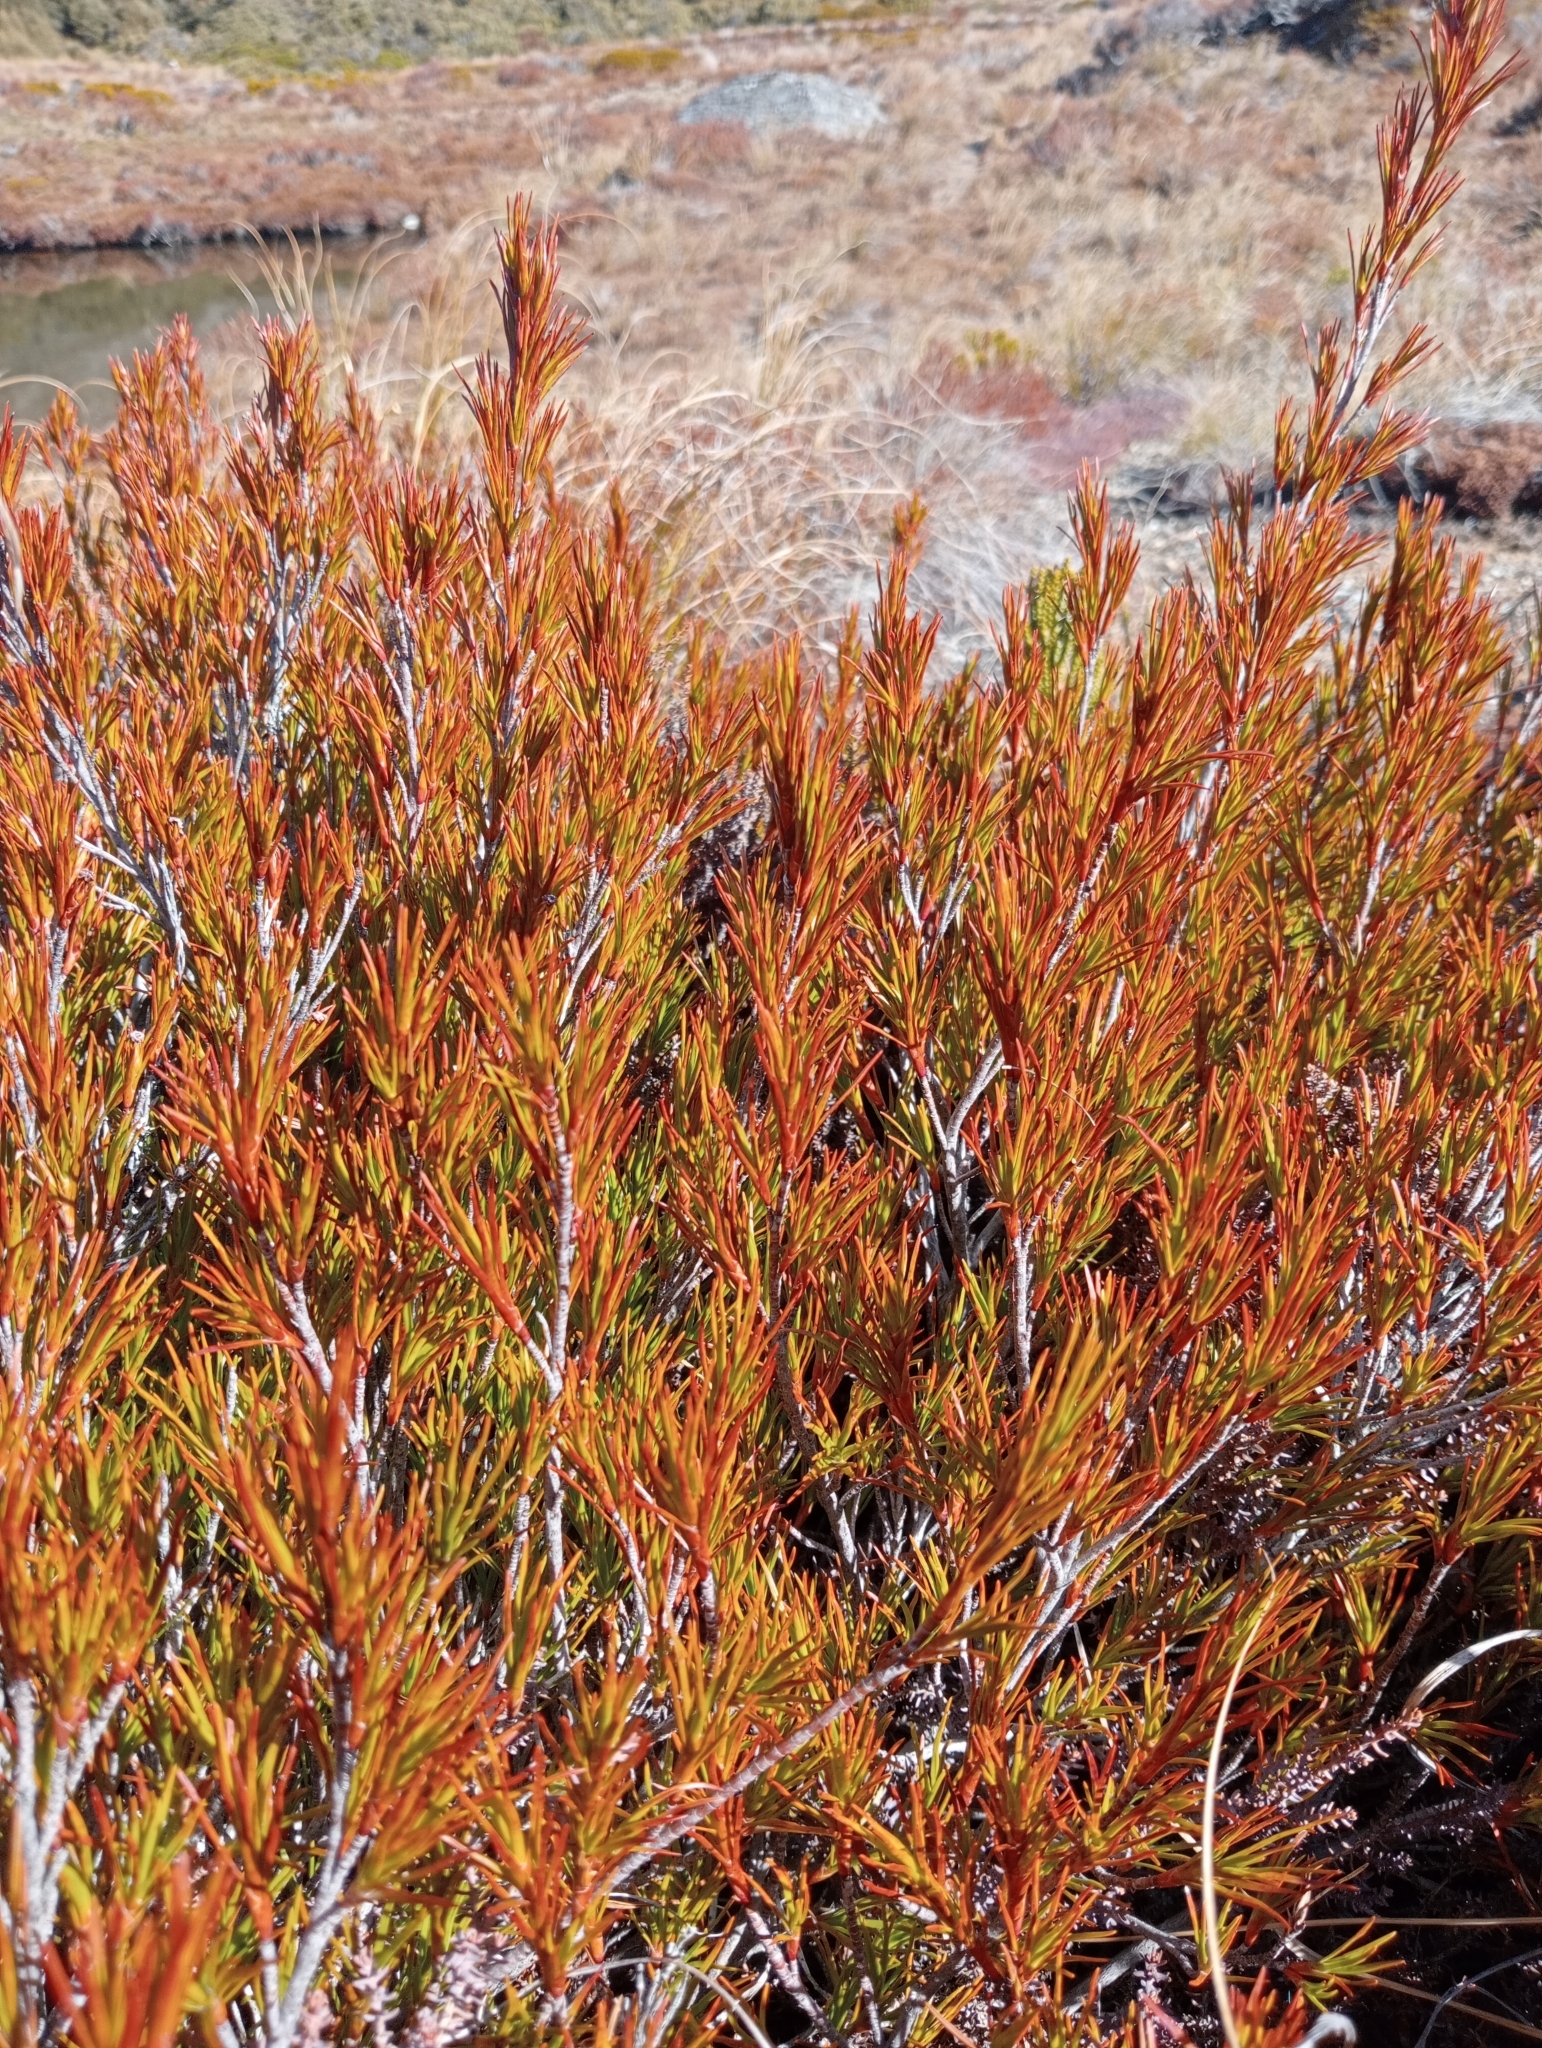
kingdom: Plantae
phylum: Tracheophyta
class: Magnoliopsida
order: Ericales
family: Ericaceae
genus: Dracophyllum
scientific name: Dracophyllum rosmarinifolium
